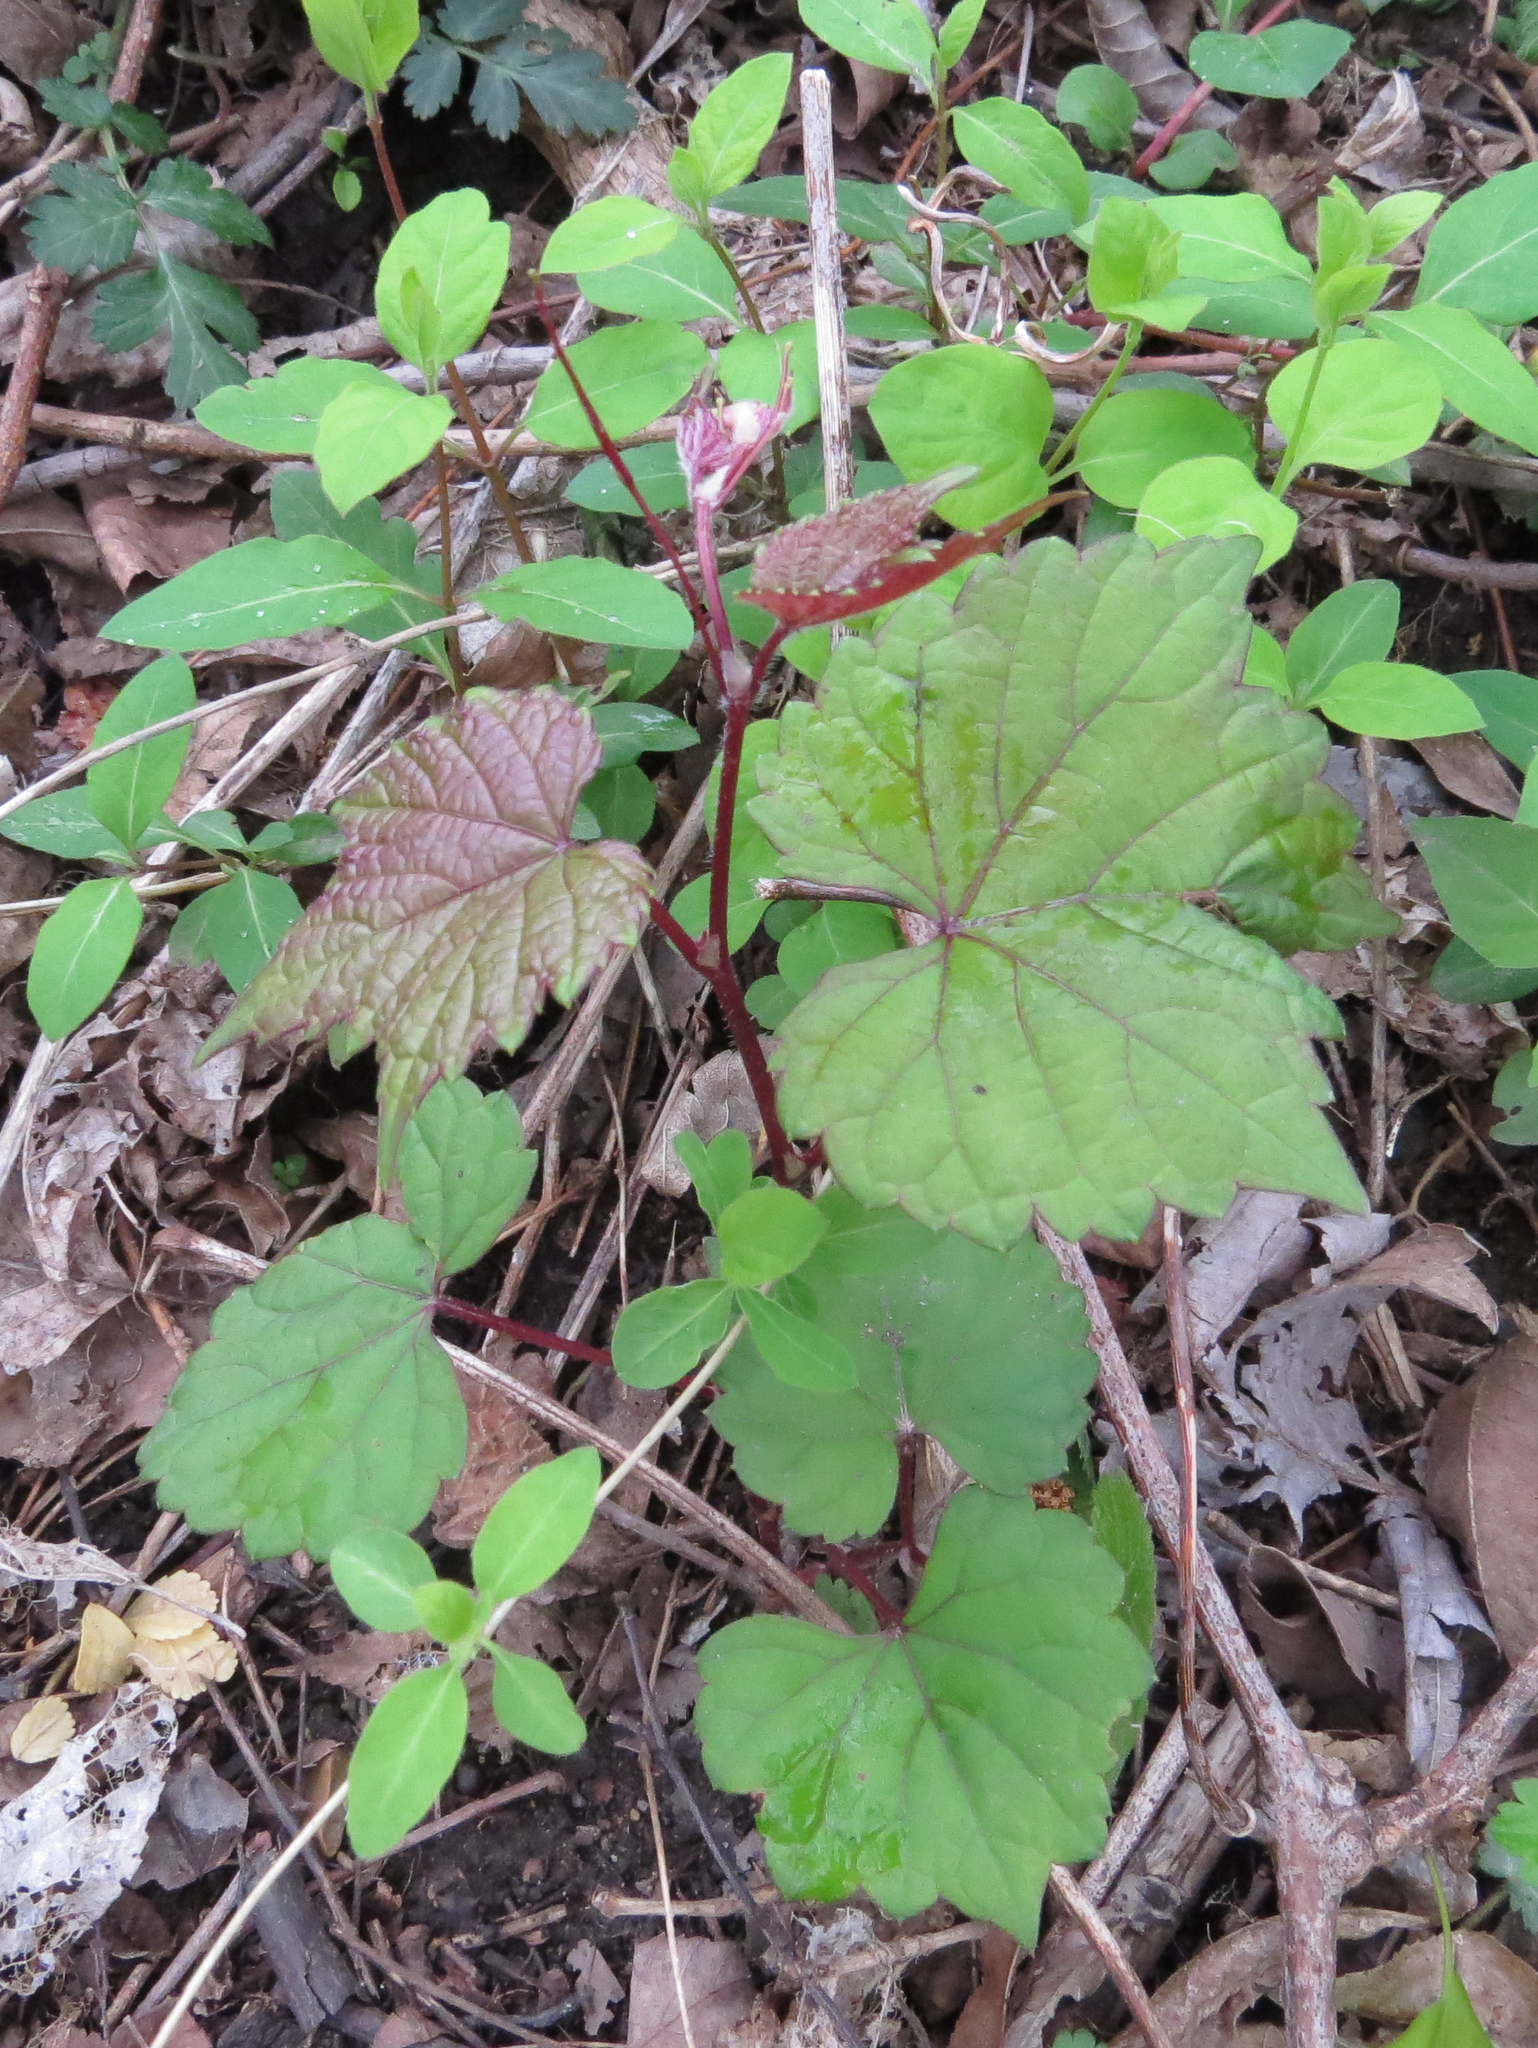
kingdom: Plantae
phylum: Tracheophyta
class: Magnoliopsida
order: Vitales
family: Vitaceae
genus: Ampelopsis
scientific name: Ampelopsis glandulosa
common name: Amur peppervine
